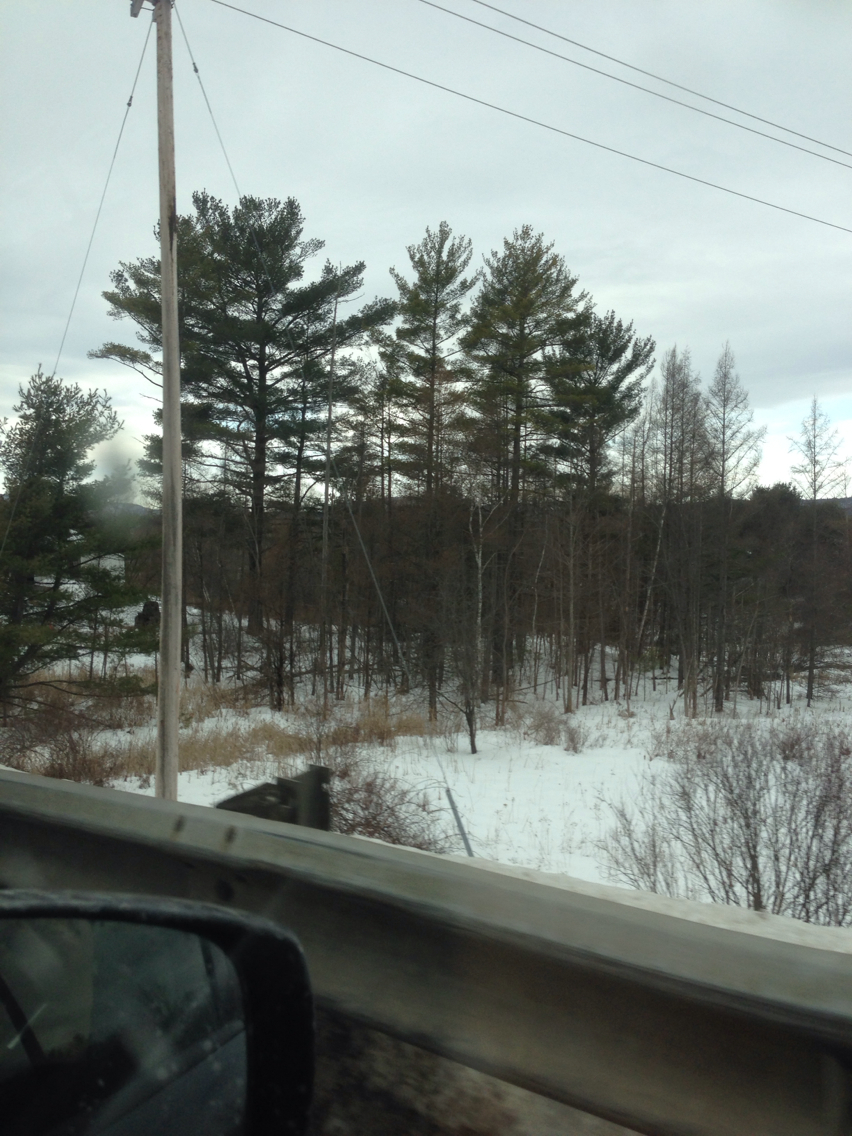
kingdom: Plantae
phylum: Tracheophyta
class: Pinopsida
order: Pinales
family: Pinaceae
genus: Pinus
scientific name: Pinus strobus
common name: Weymouth pine
